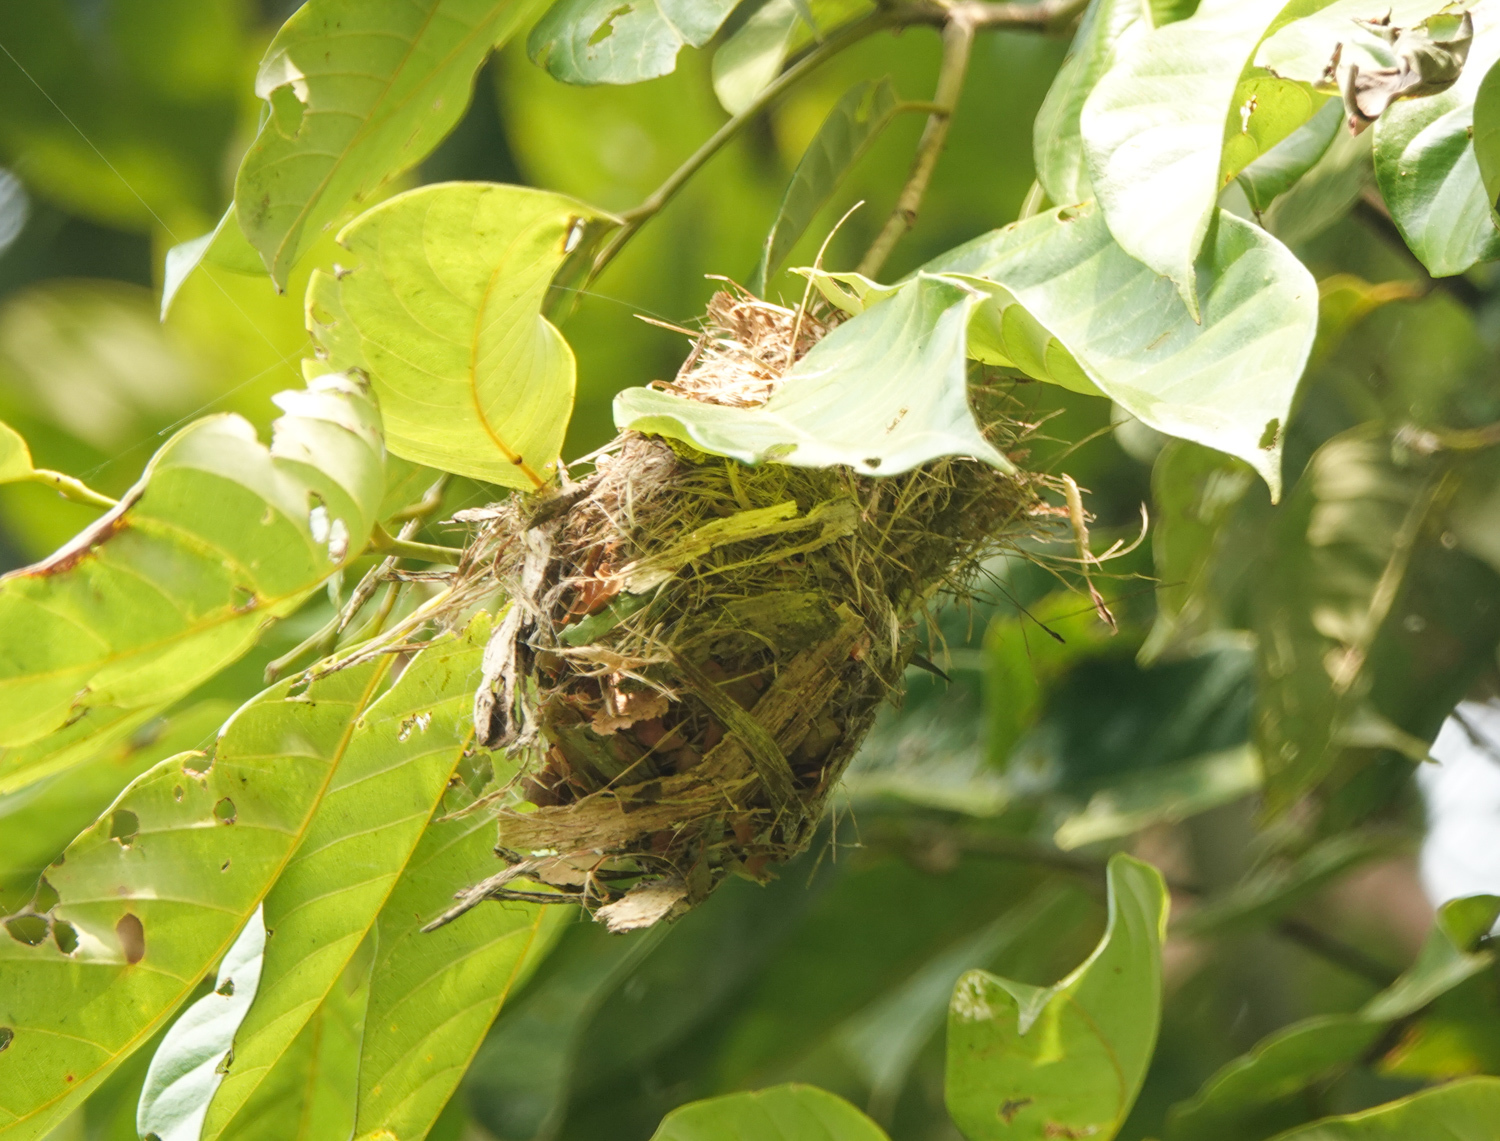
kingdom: Animalia
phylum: Chordata
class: Aves
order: Passeriformes
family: Nectariniidae
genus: Leptocoma
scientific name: Leptocoma brasiliana
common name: Van hasselt's sunbird
